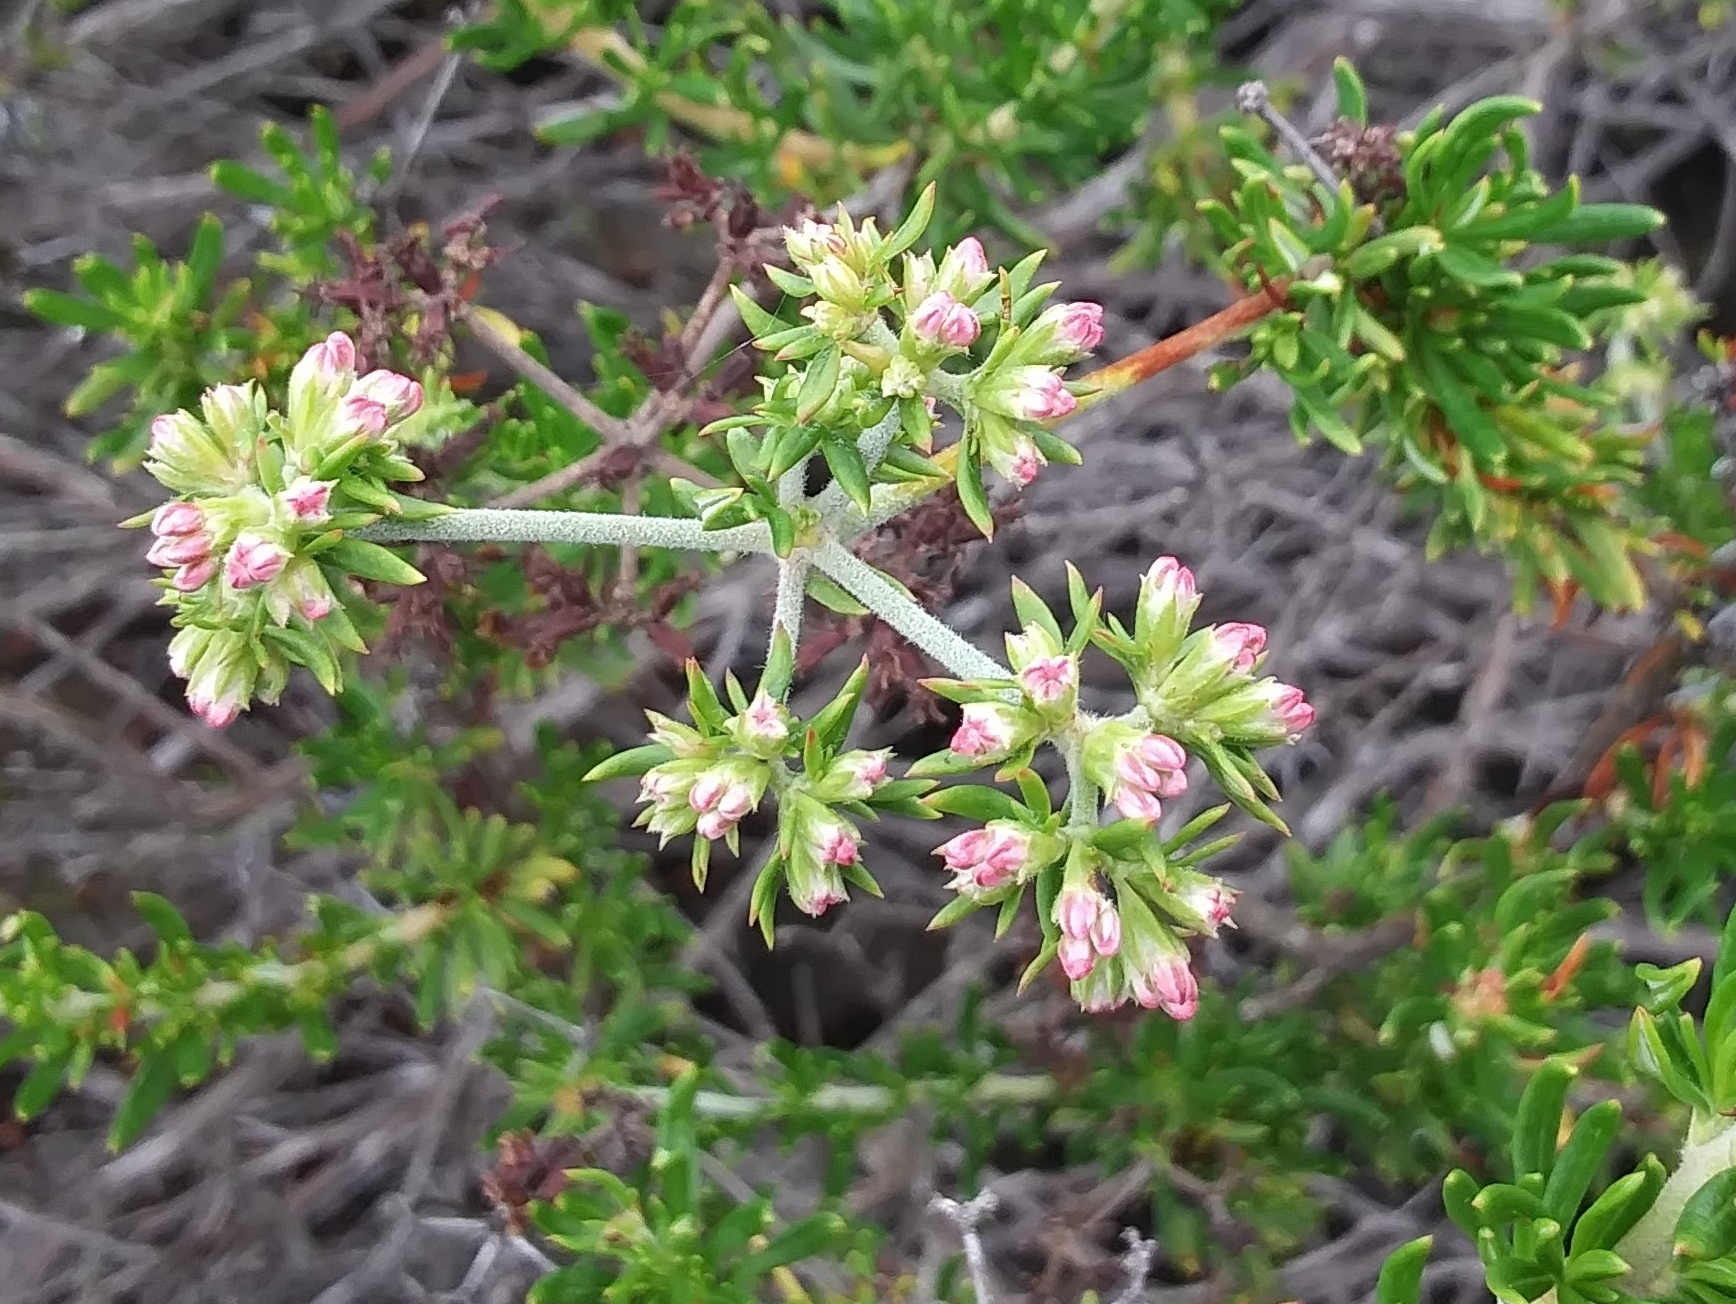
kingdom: Plantae
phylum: Tracheophyta
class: Magnoliopsida
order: Caryophyllales
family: Polygonaceae
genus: Eriogonum
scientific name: Eriogonum fasciculatum
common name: California wild buckwheat
